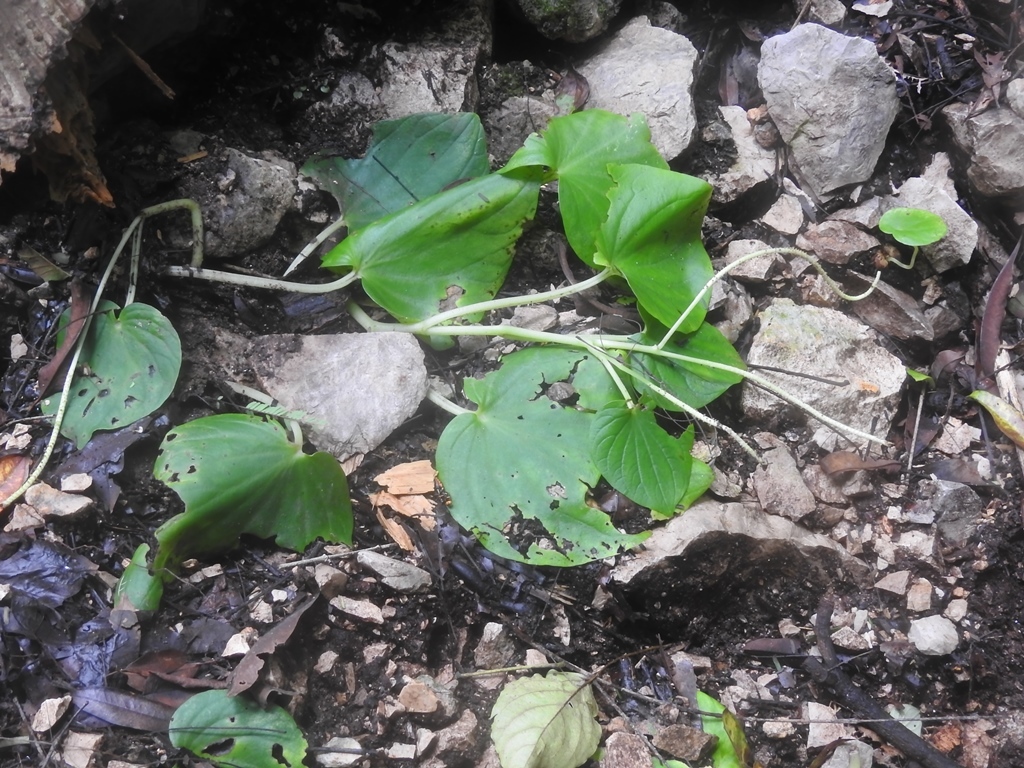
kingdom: Plantae
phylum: Tracheophyta
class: Magnoliopsida
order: Piperales
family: Piperaceae
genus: Peperomia
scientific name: Peperomia lanceolatopeltata
